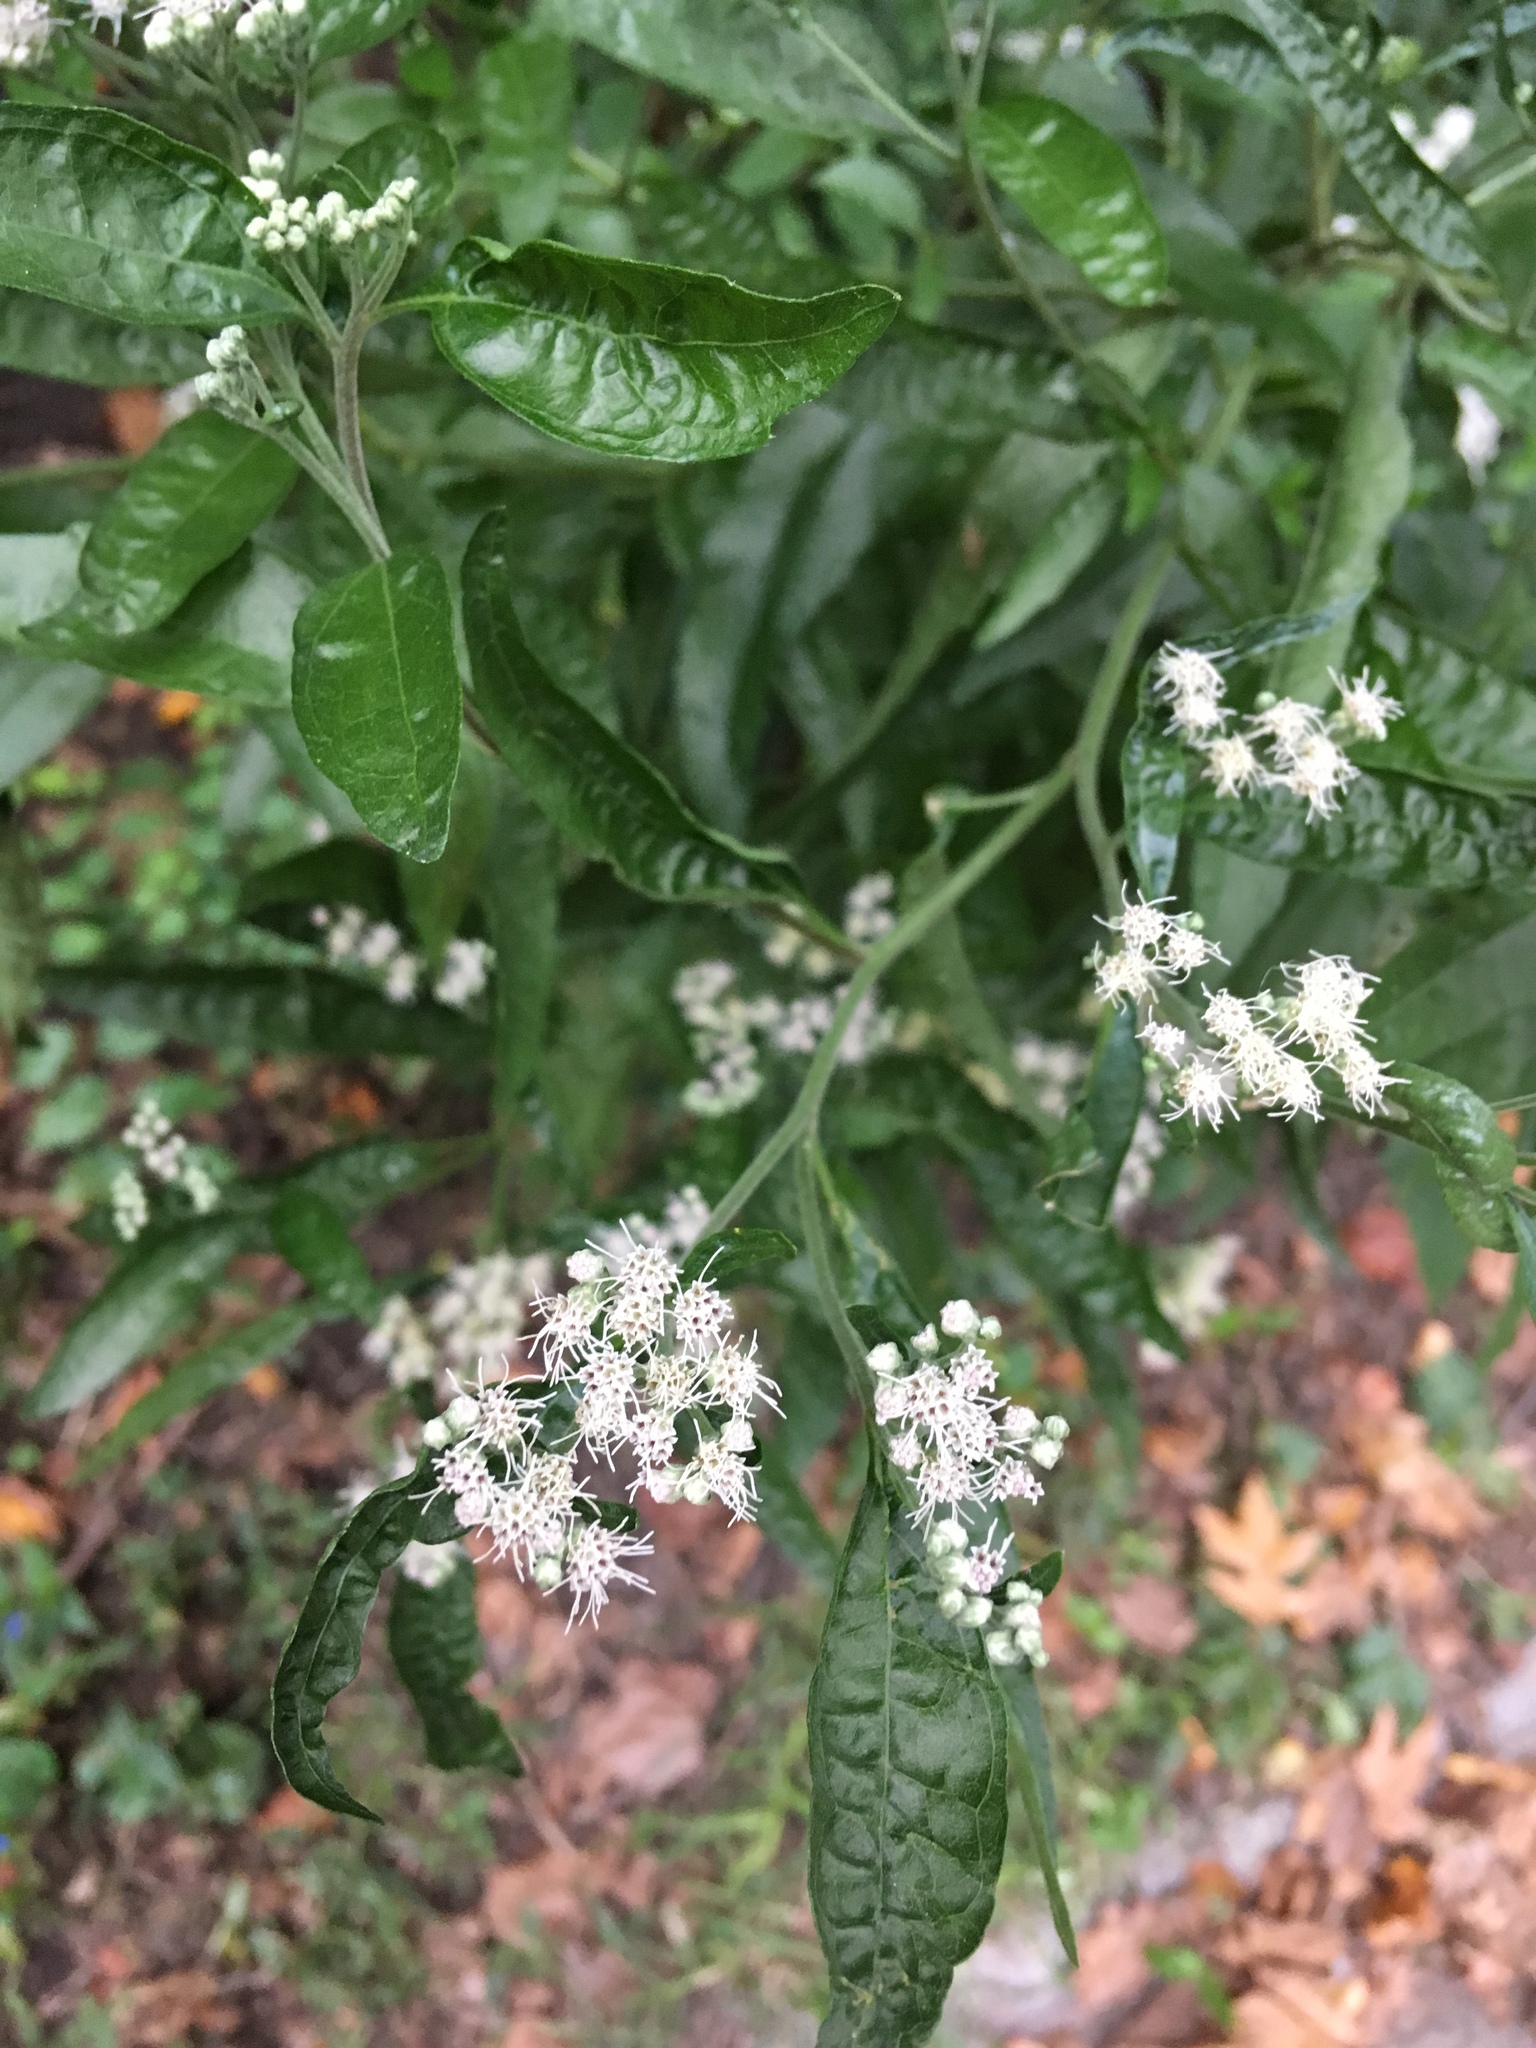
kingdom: Plantae
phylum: Tracheophyta
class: Magnoliopsida
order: Asterales
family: Asteraceae
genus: Eupatorium
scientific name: Eupatorium serotinum
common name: Late boneset
